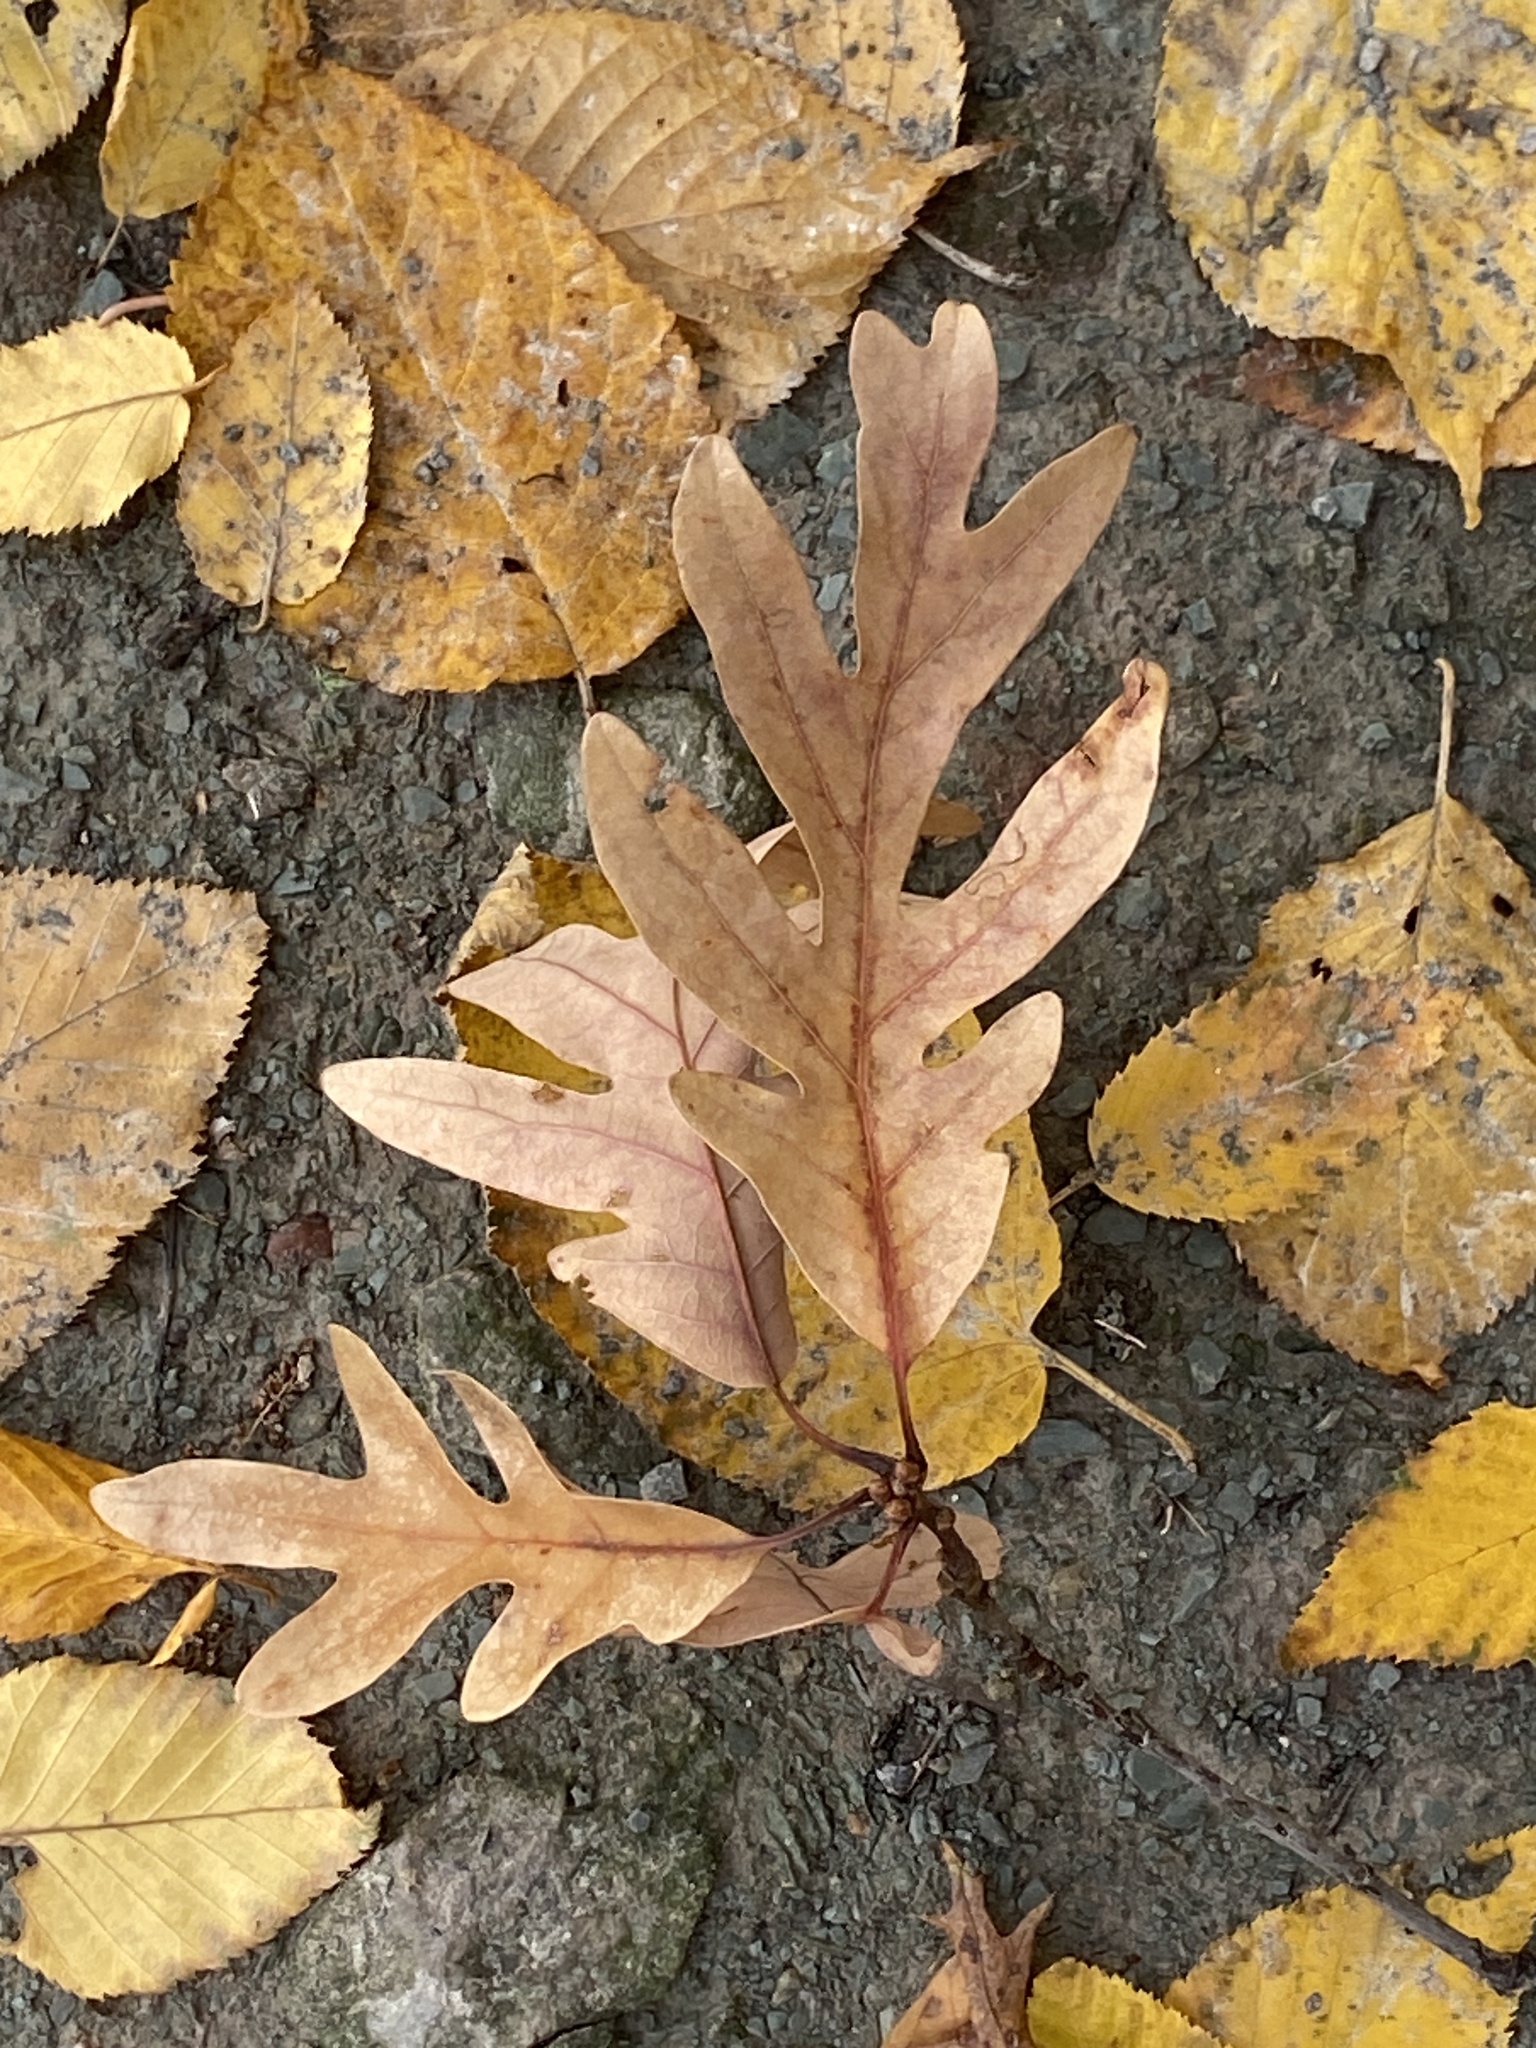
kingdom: Plantae
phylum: Tracheophyta
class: Magnoliopsida
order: Fagales
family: Fagaceae
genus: Quercus
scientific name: Quercus alba
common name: White oak
